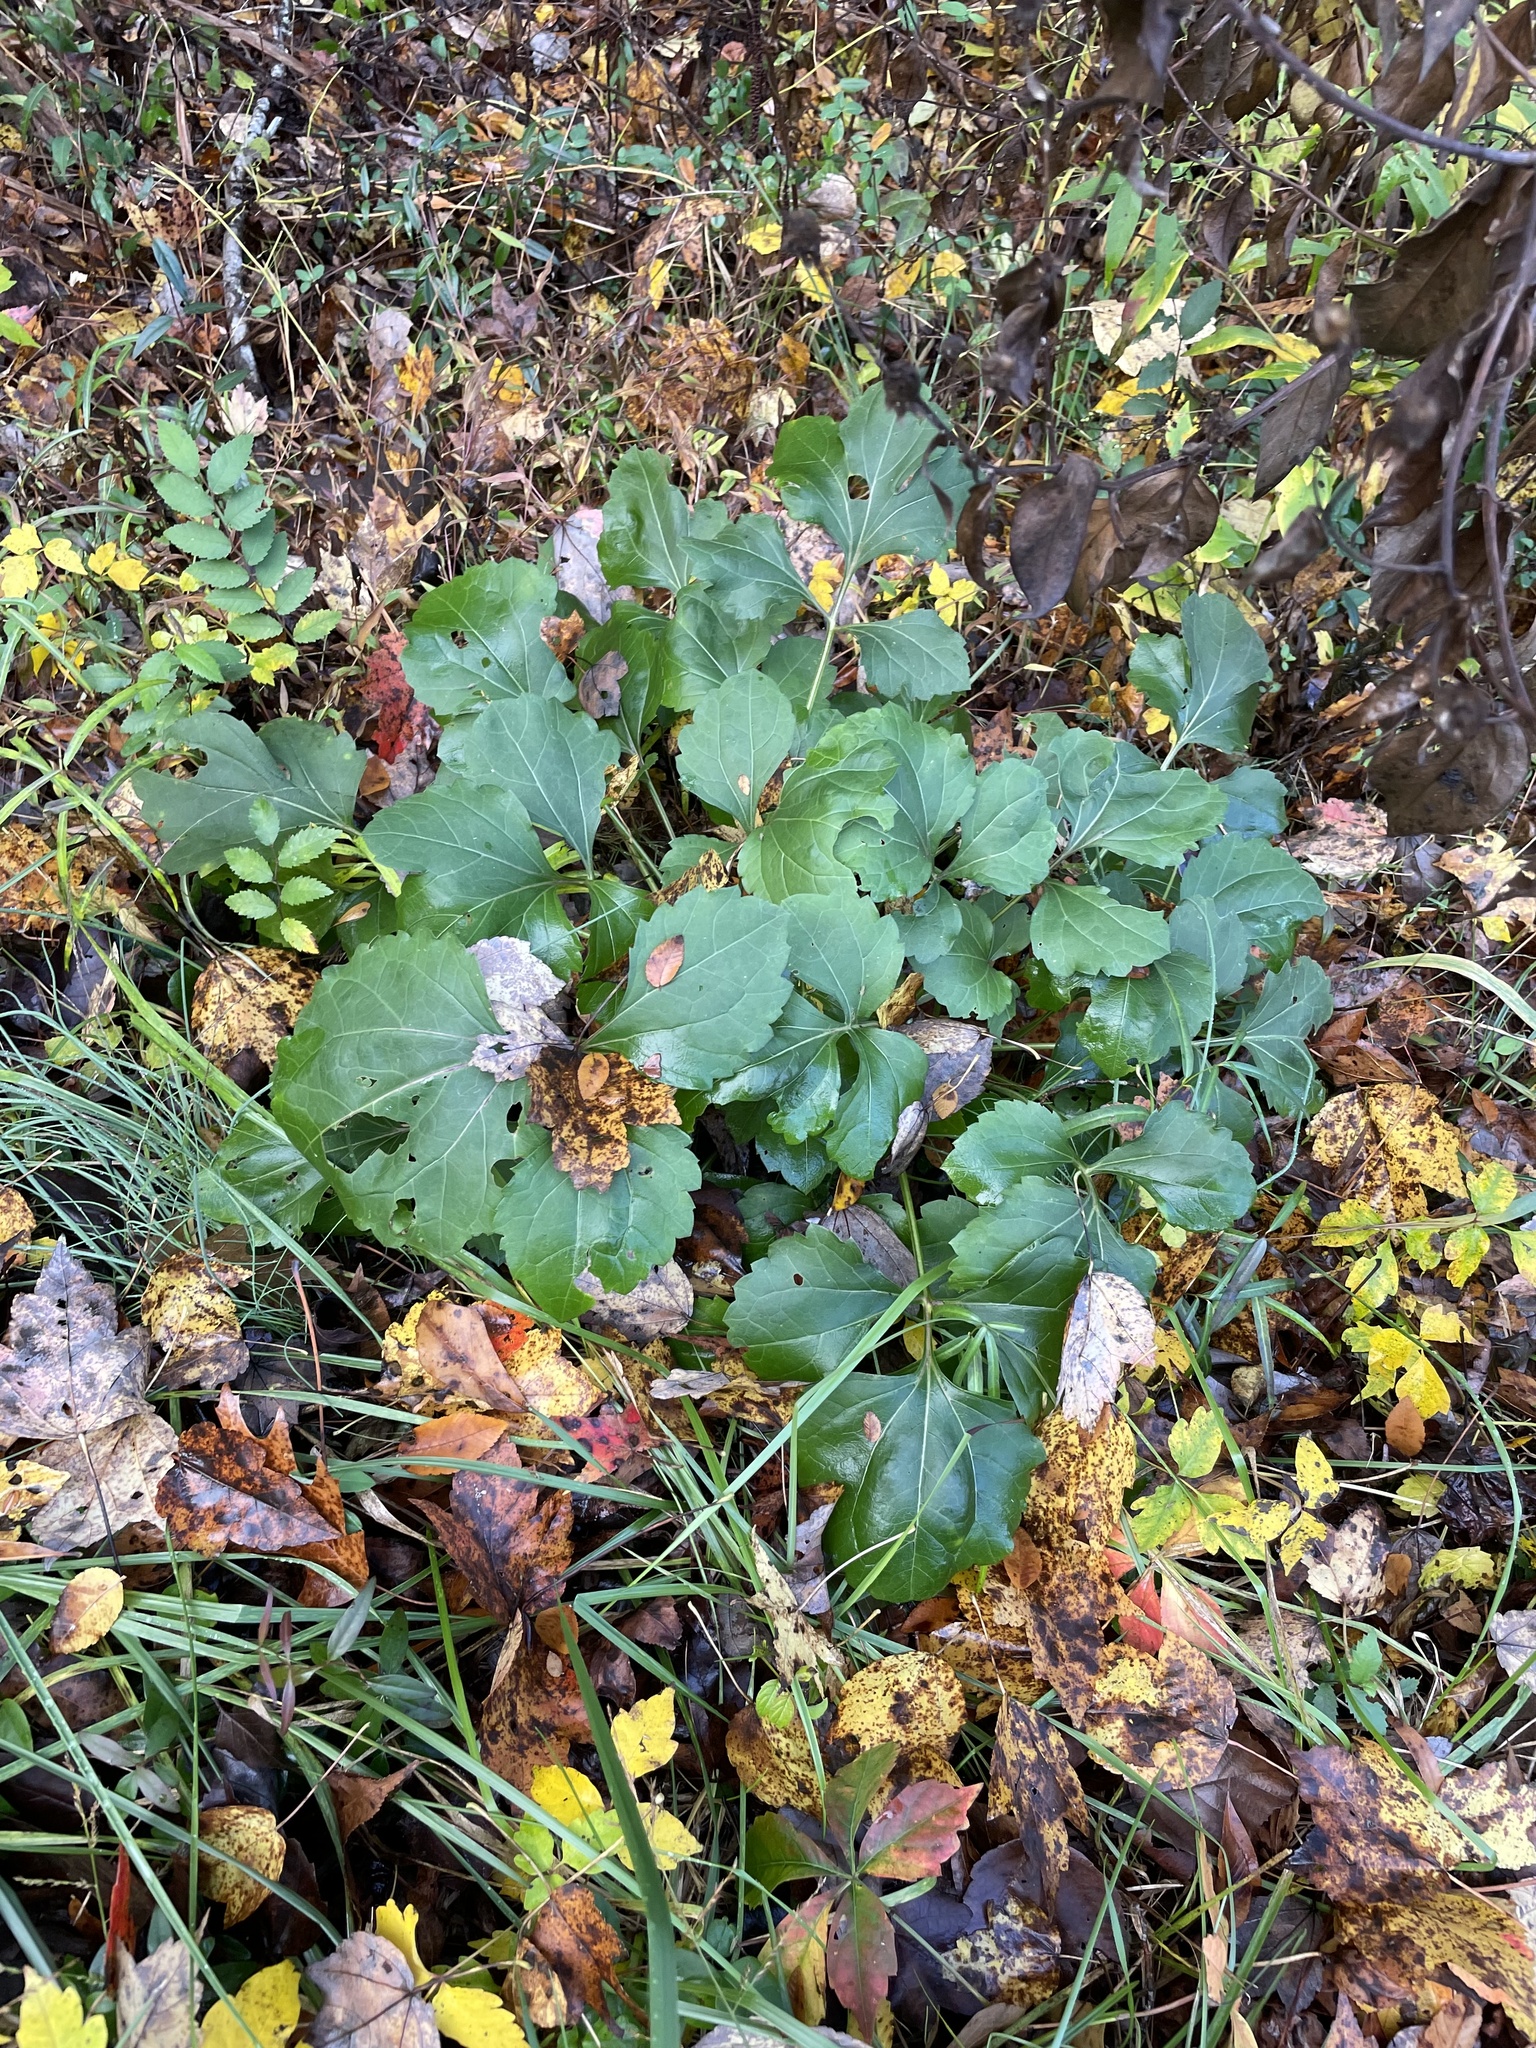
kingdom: Plantae
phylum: Tracheophyta
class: Magnoliopsida
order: Asterales
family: Asteraceae
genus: Rudbeckia
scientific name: Rudbeckia laciniata
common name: Coneflower
